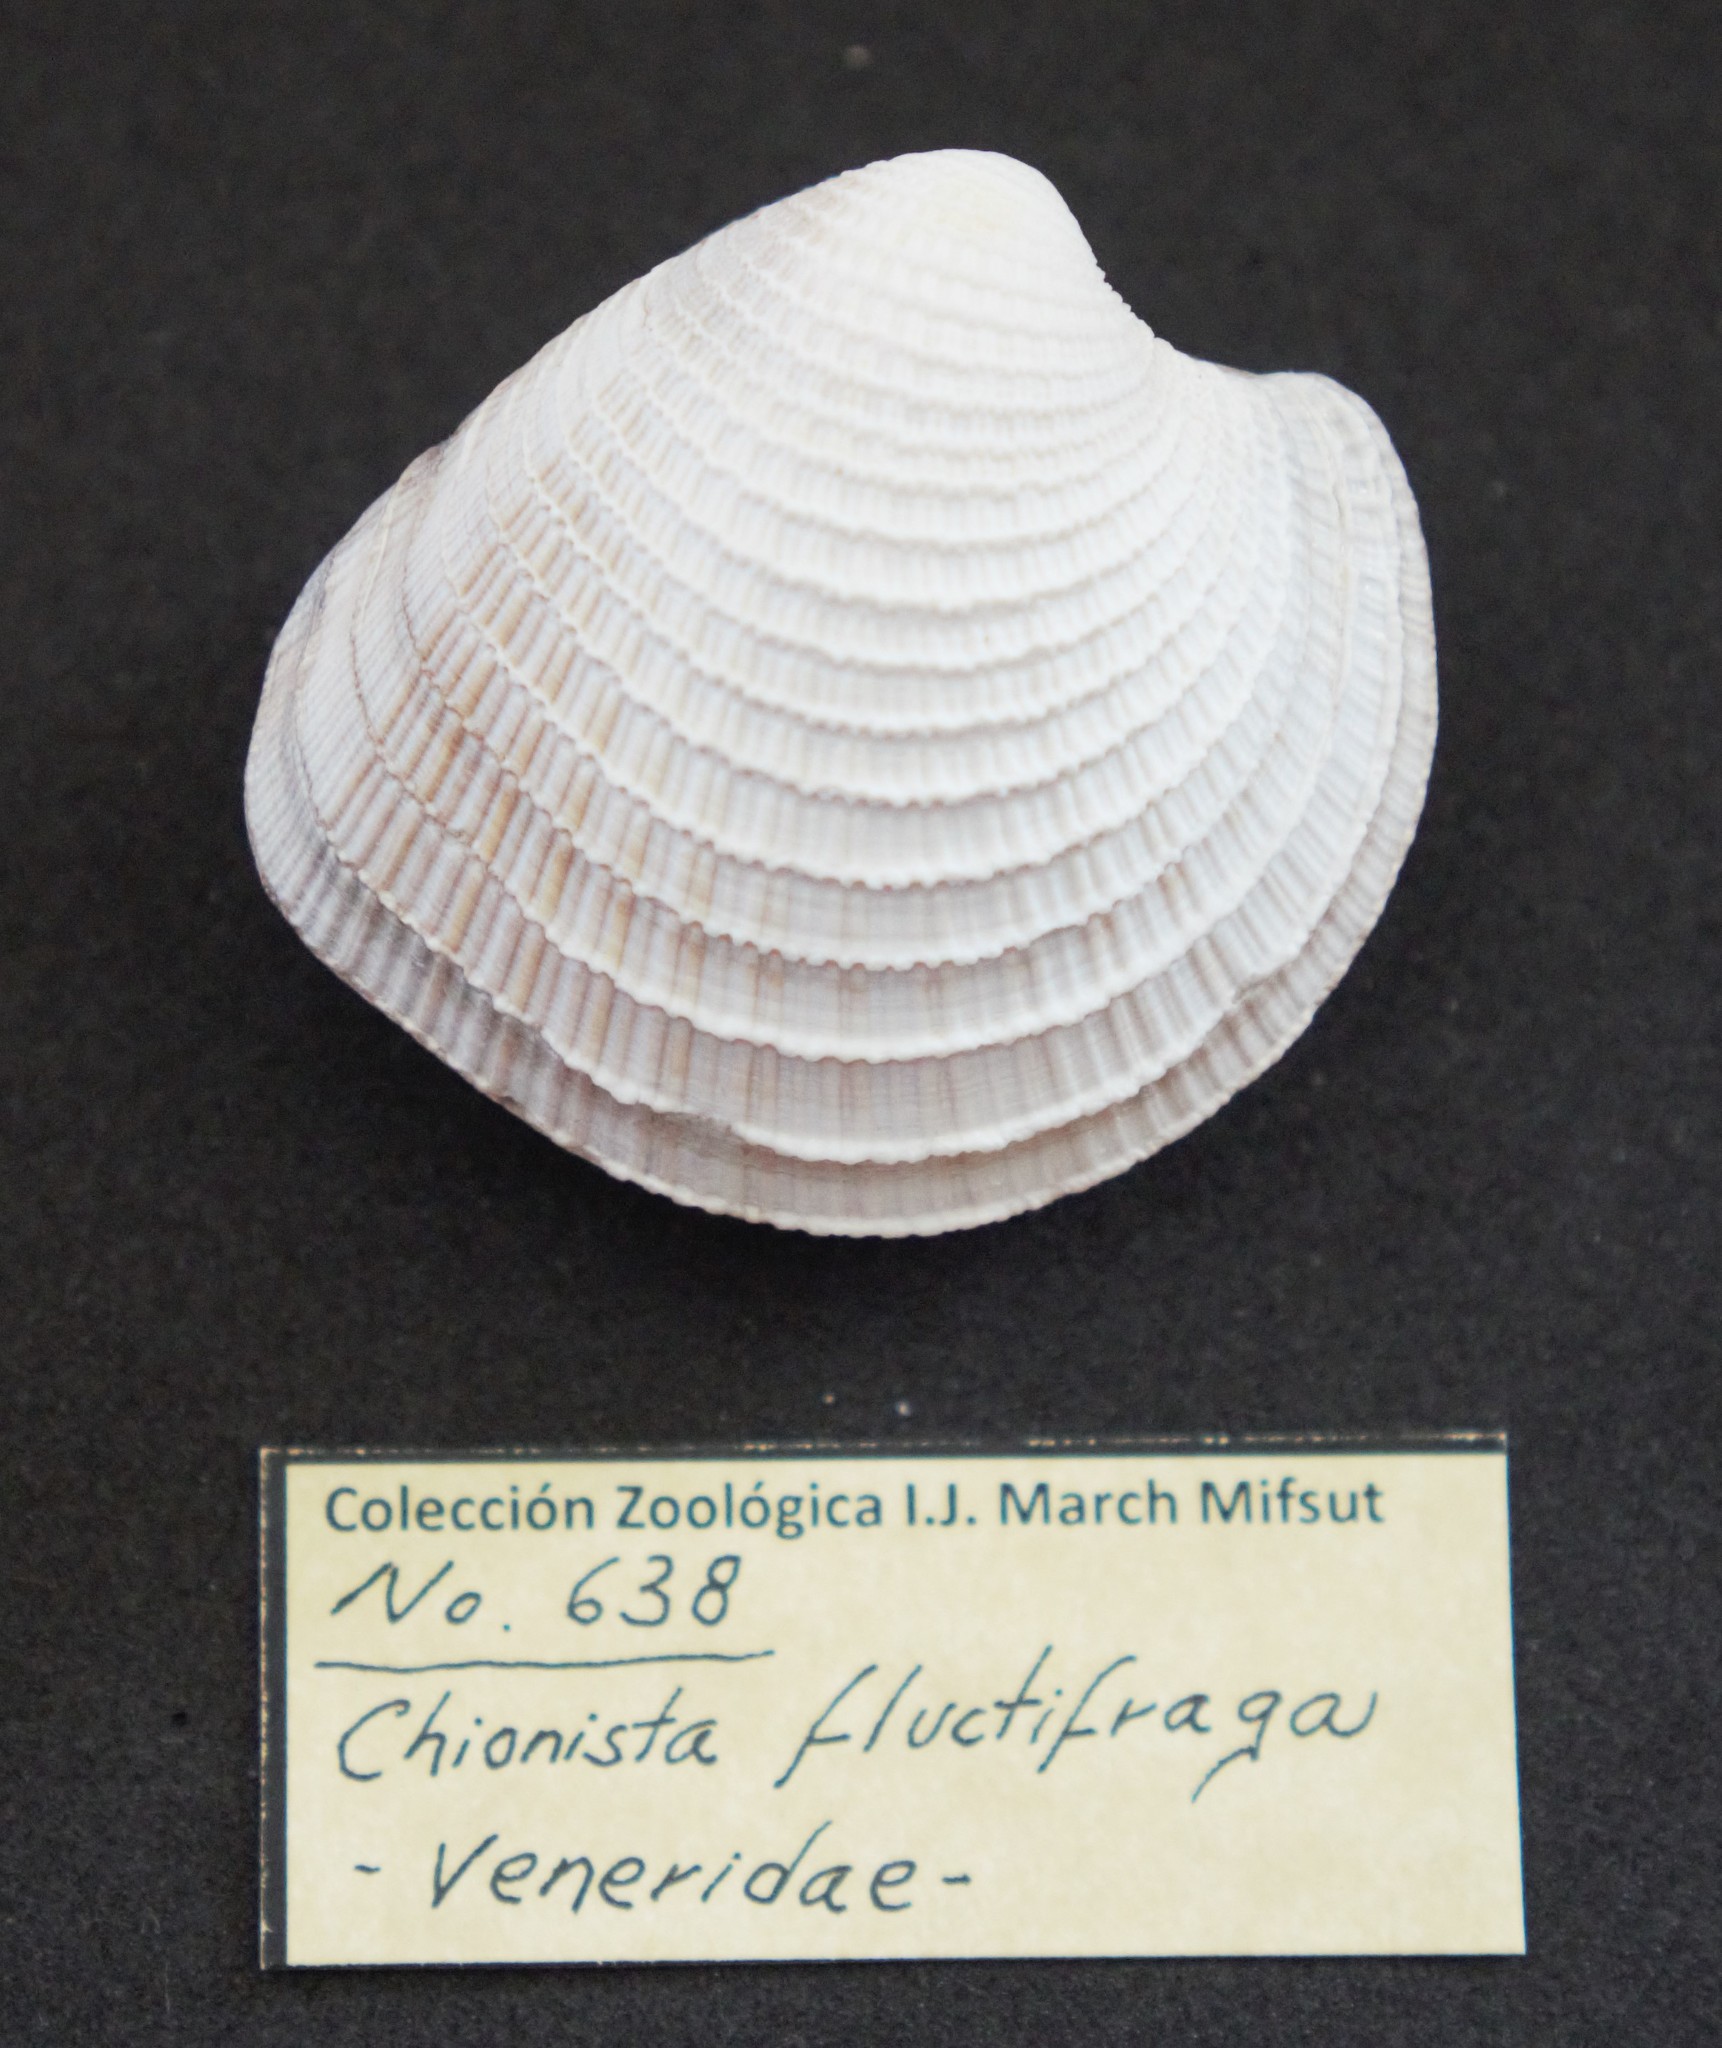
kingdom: Animalia
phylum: Mollusca
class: Bivalvia
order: Venerida
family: Veneridae
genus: Chionista
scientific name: Chionista fluctifraga
